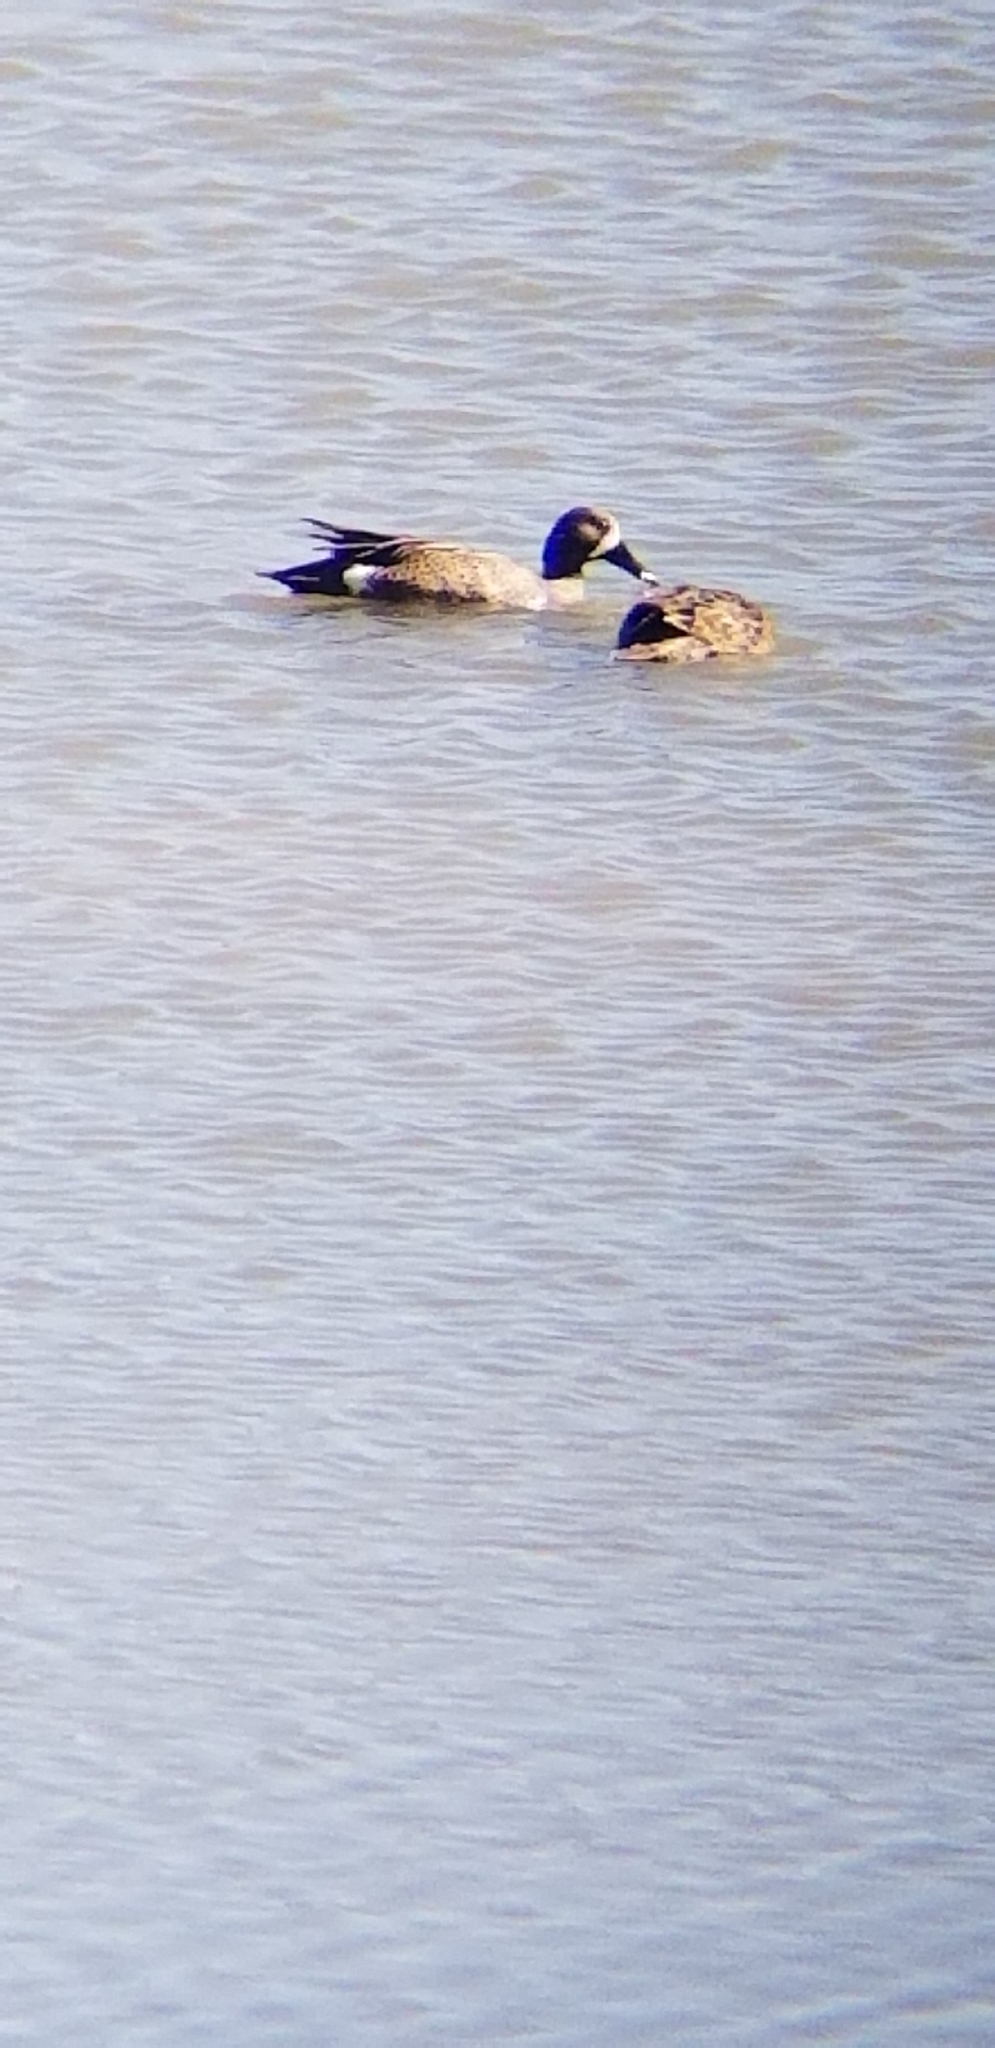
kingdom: Animalia
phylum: Chordata
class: Aves
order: Anseriformes
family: Anatidae
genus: Spatula
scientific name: Spatula discors
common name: Blue-winged teal
